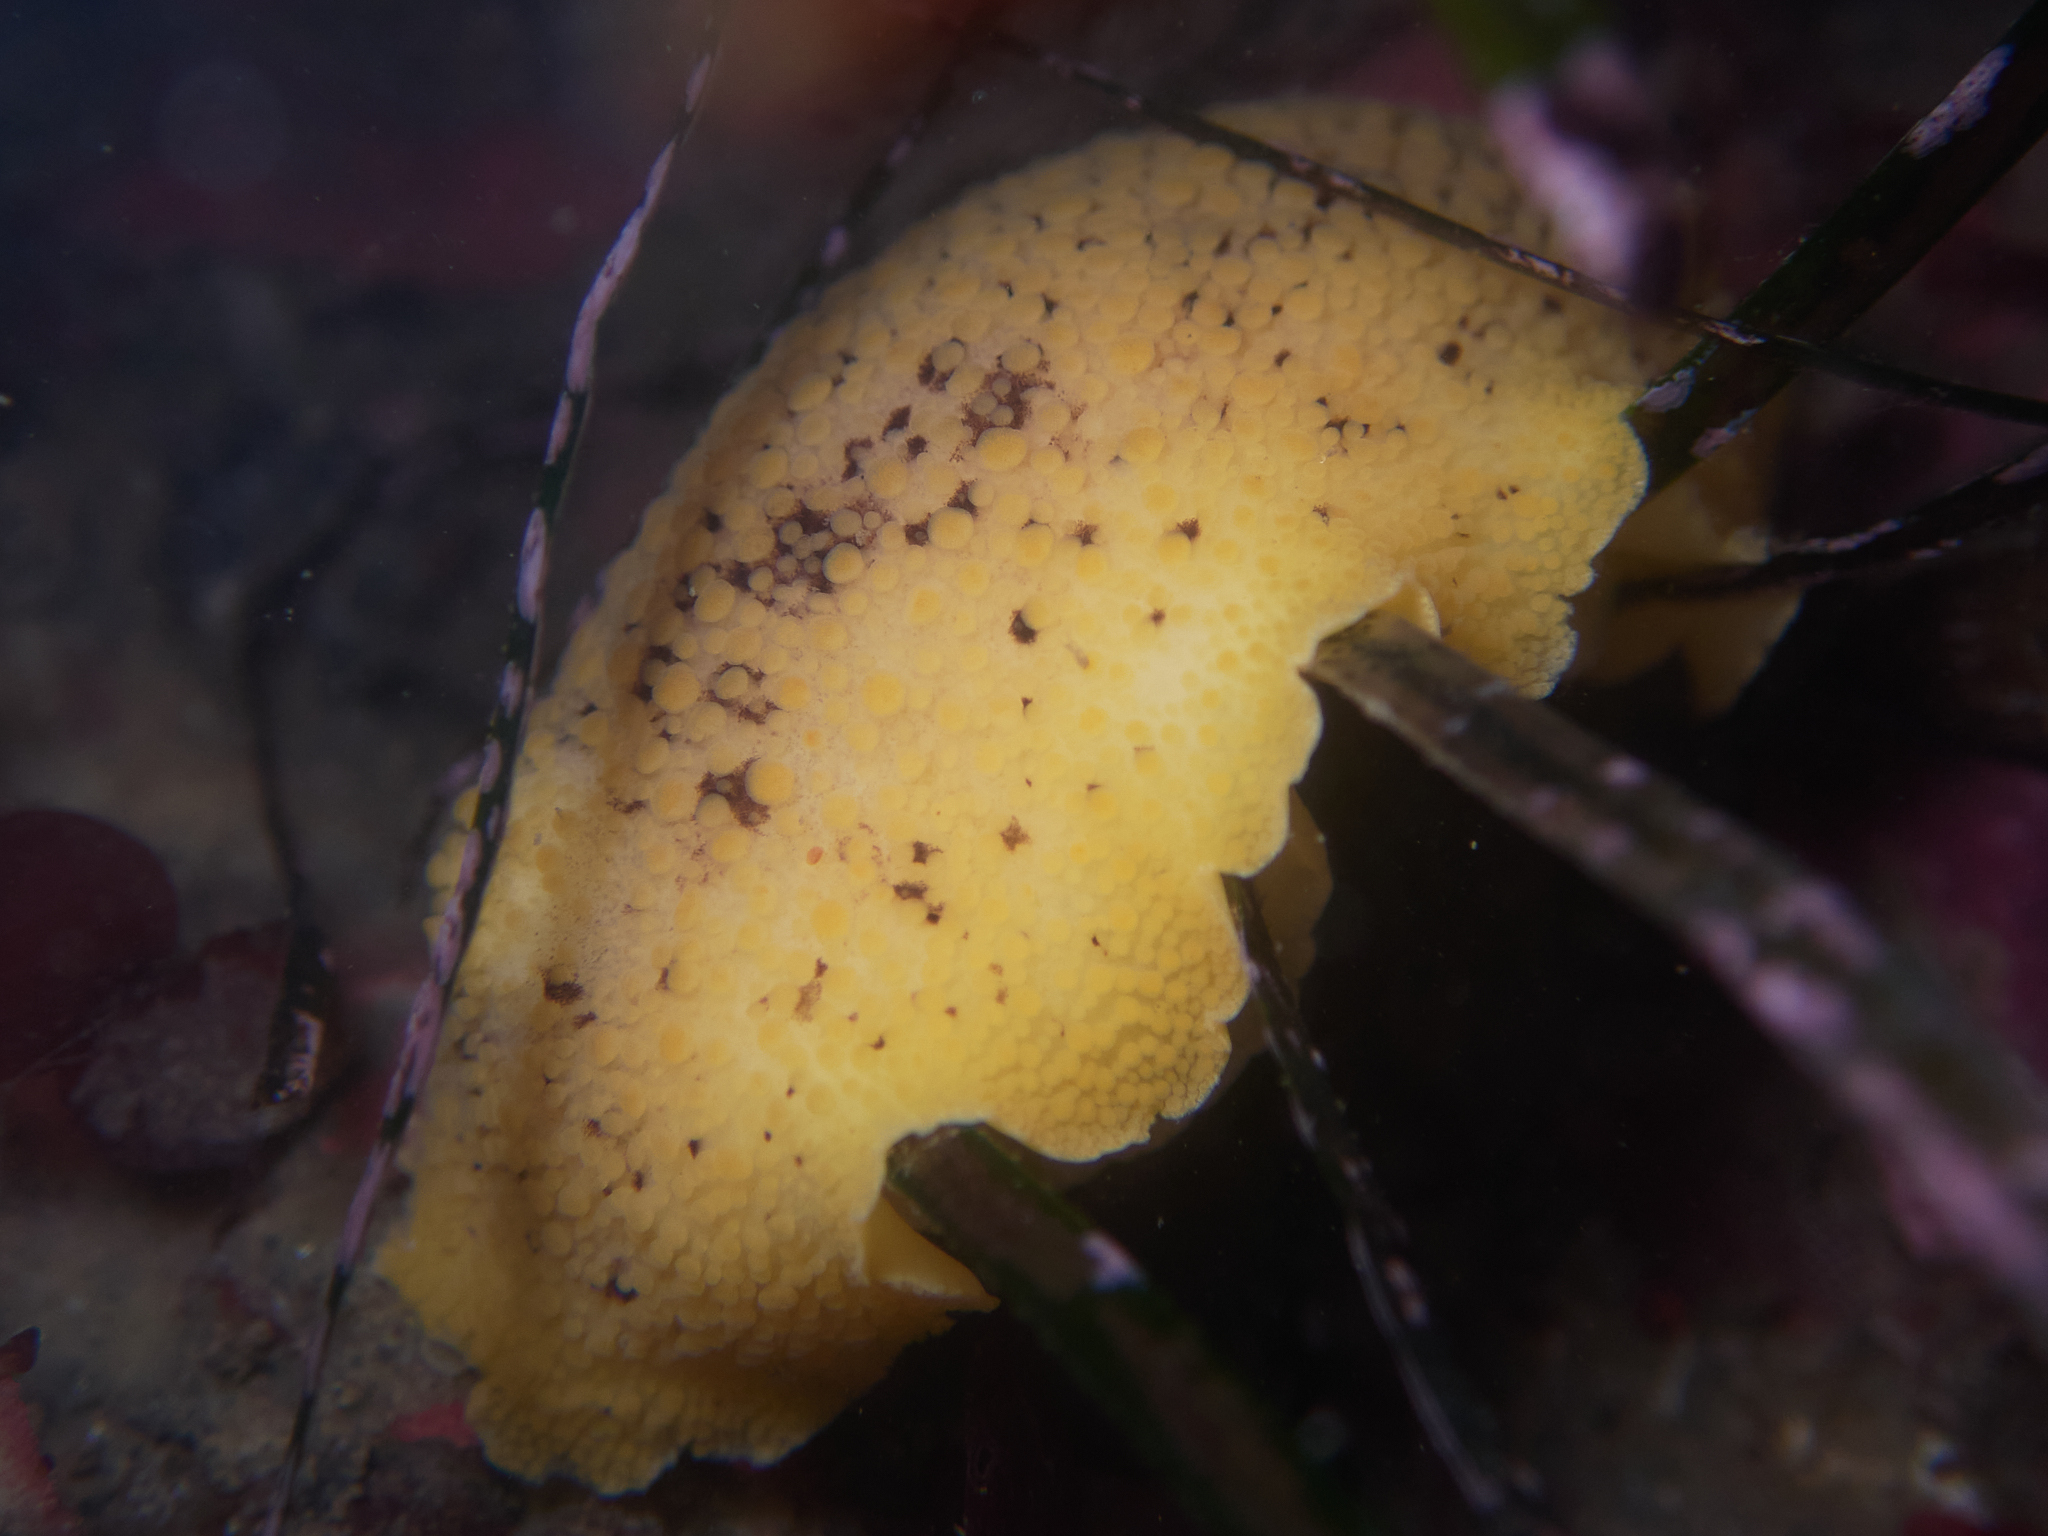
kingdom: Animalia
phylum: Mollusca
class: Gastropoda
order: Nudibranchia
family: Discodorididae
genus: Peltodoris
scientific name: Peltodoris nobilis
